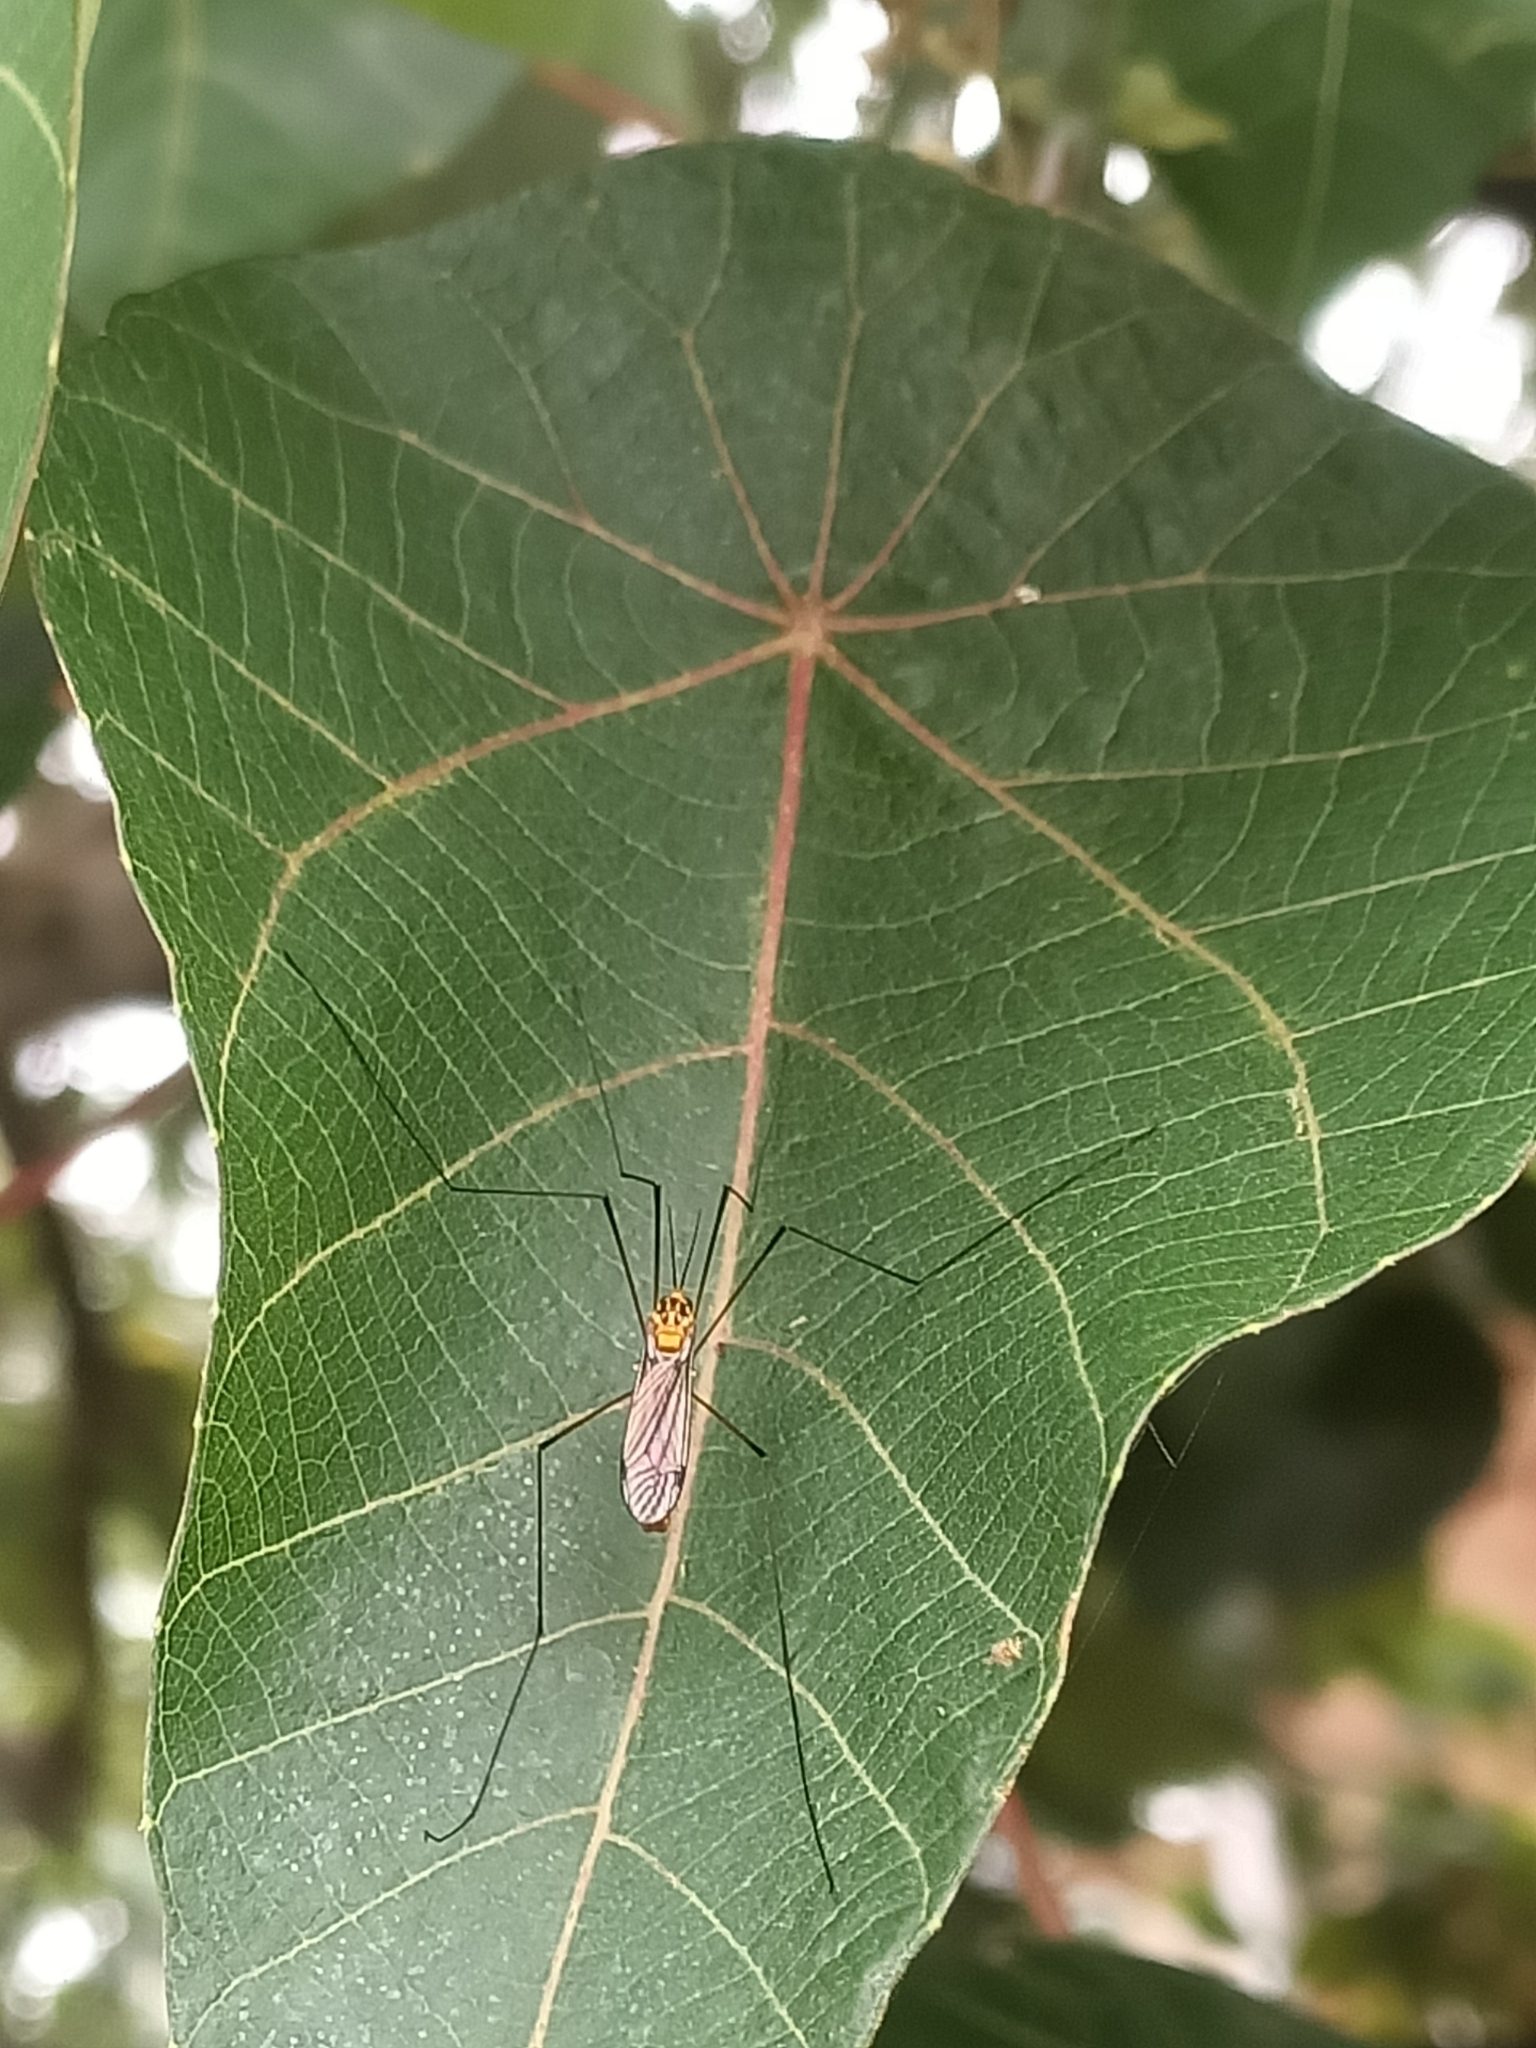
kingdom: Animalia
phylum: Arthropoda
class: Insecta
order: Diptera
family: Tipulidae
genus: Nephrotoma
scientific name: Nephrotoma australasiae
